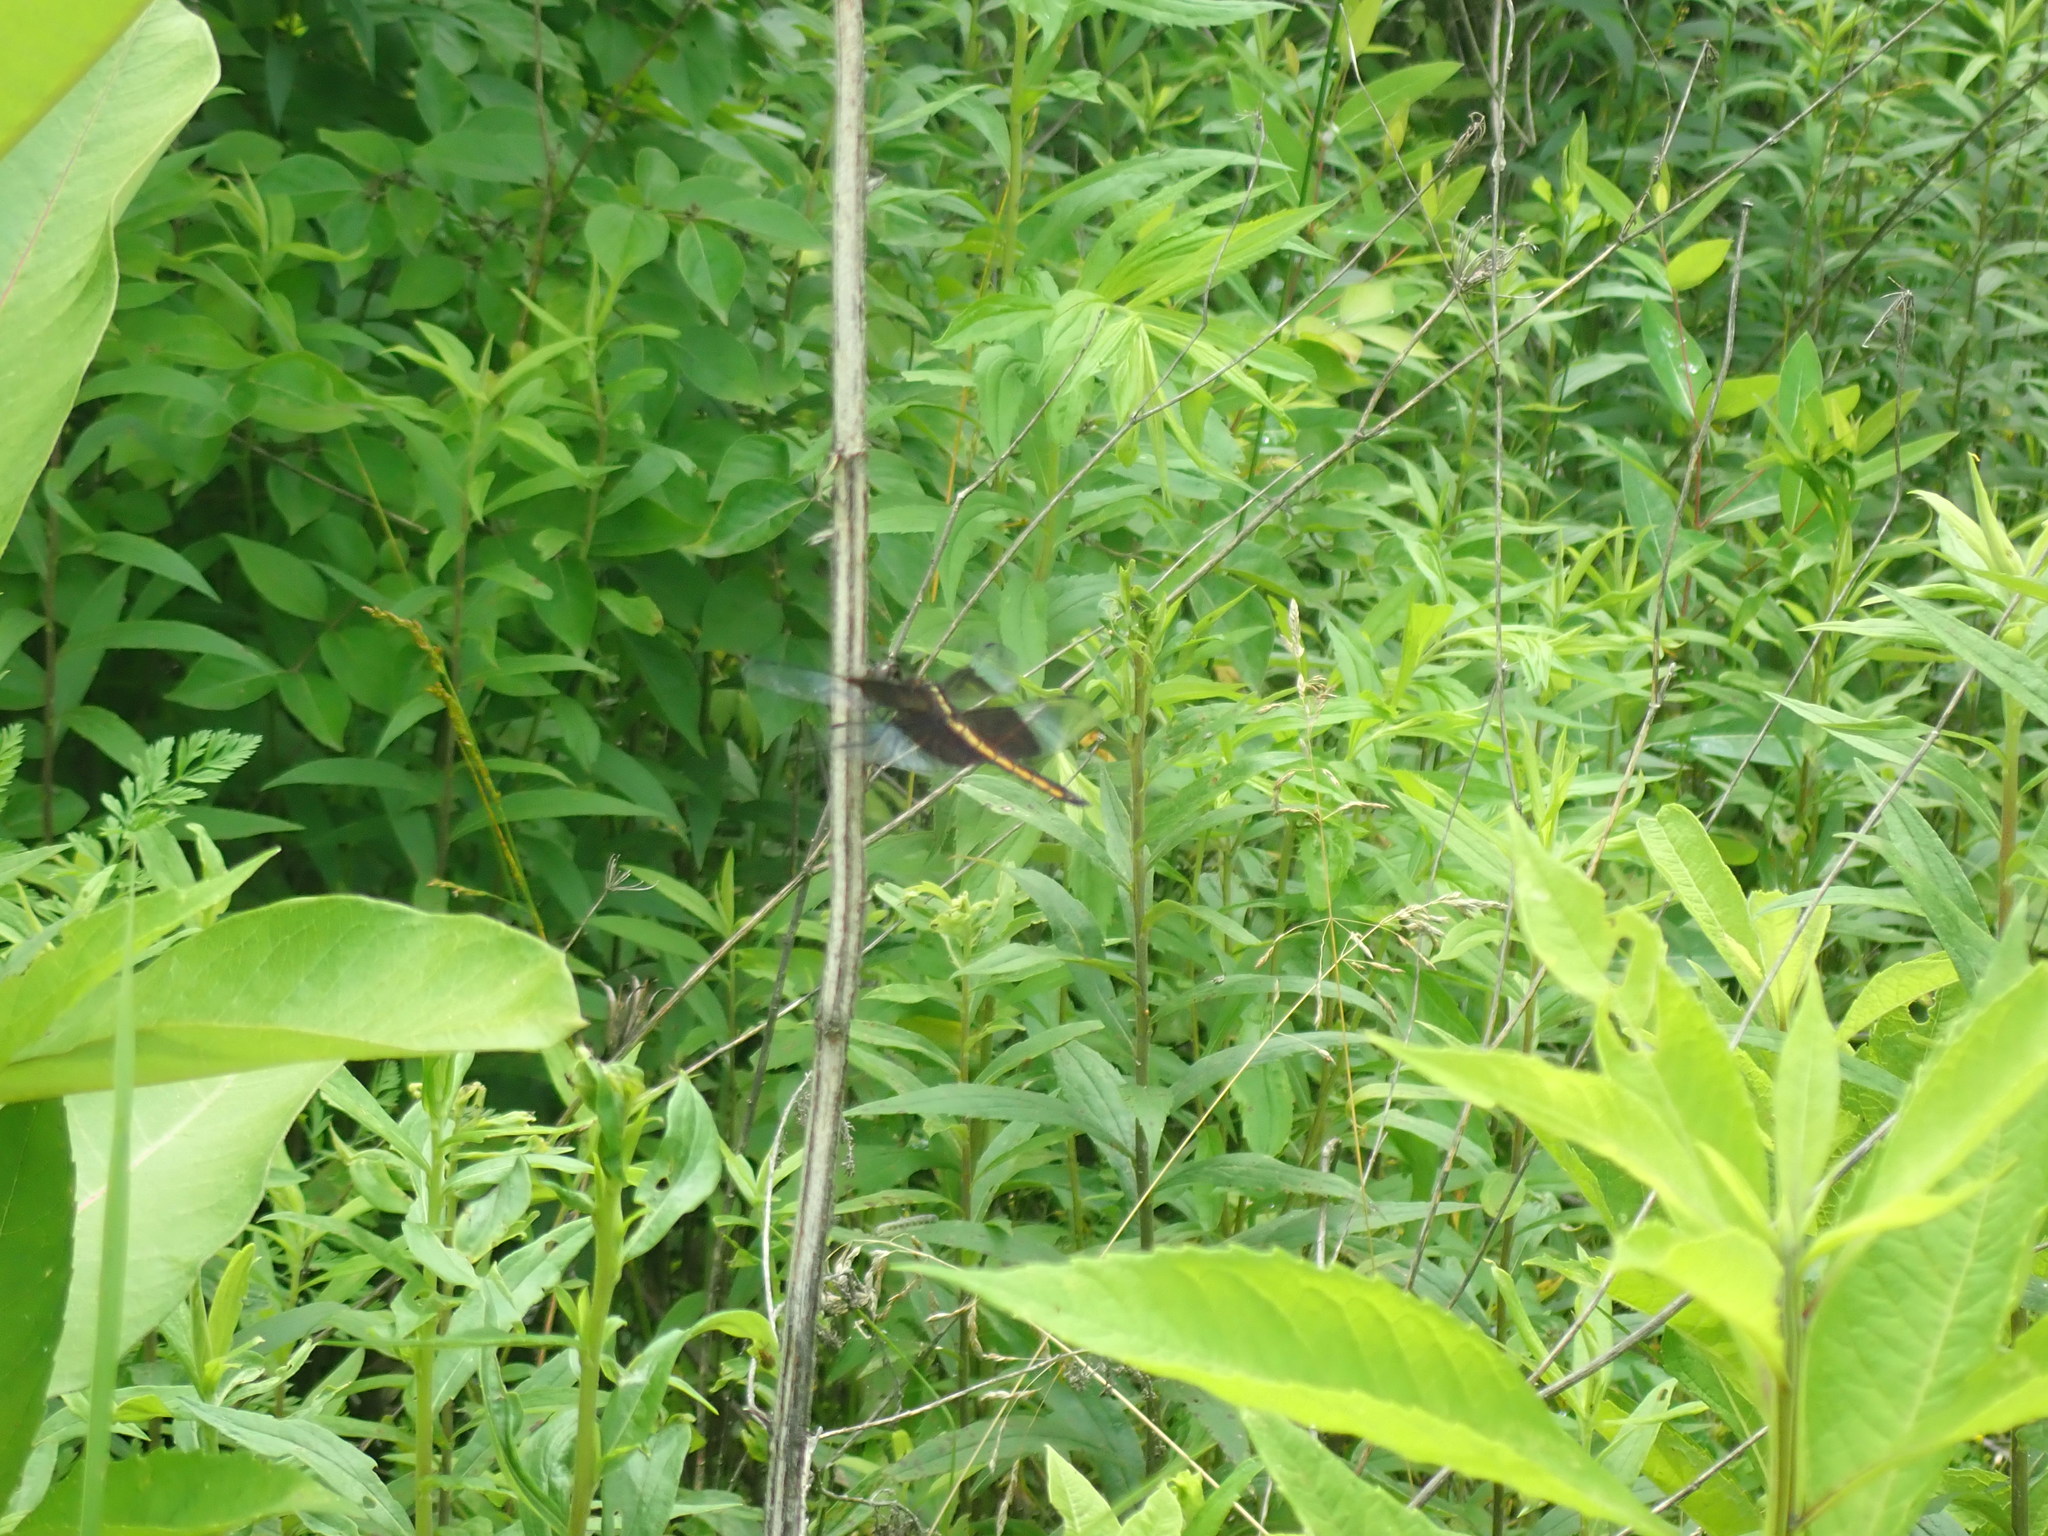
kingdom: Animalia
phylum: Arthropoda
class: Insecta
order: Odonata
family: Libellulidae
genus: Libellula
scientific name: Libellula luctuosa
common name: Widow skimmer
